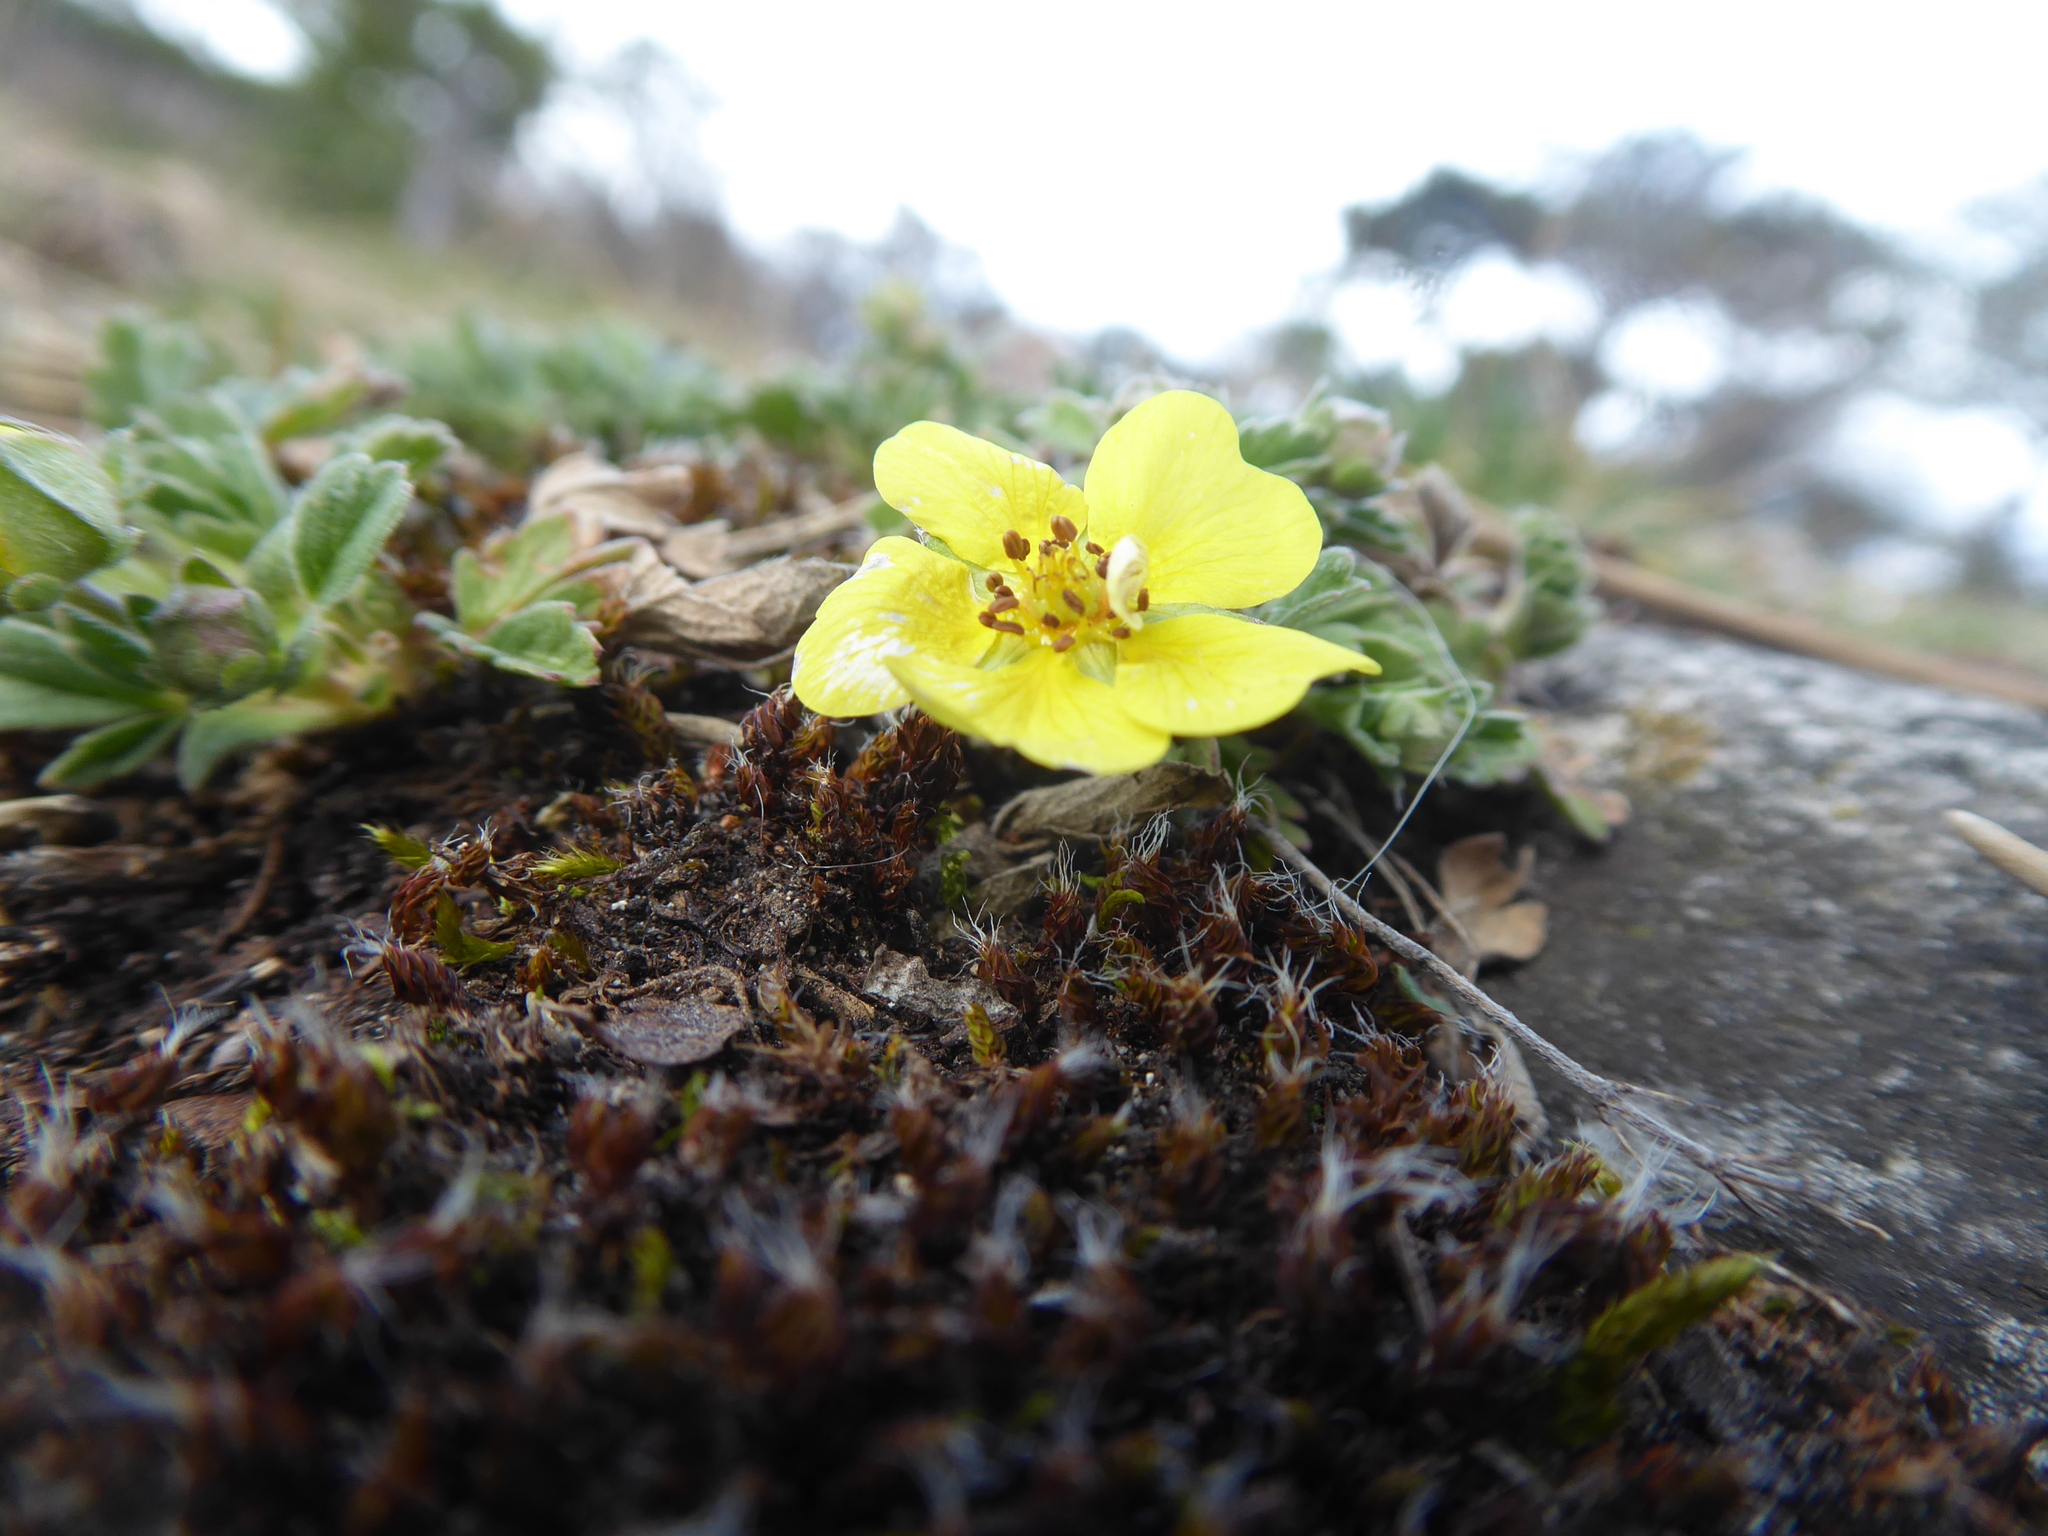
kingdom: Plantae
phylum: Tracheophyta
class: Magnoliopsida
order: Rosales
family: Rosaceae
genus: Potentilla
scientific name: Potentilla incana
